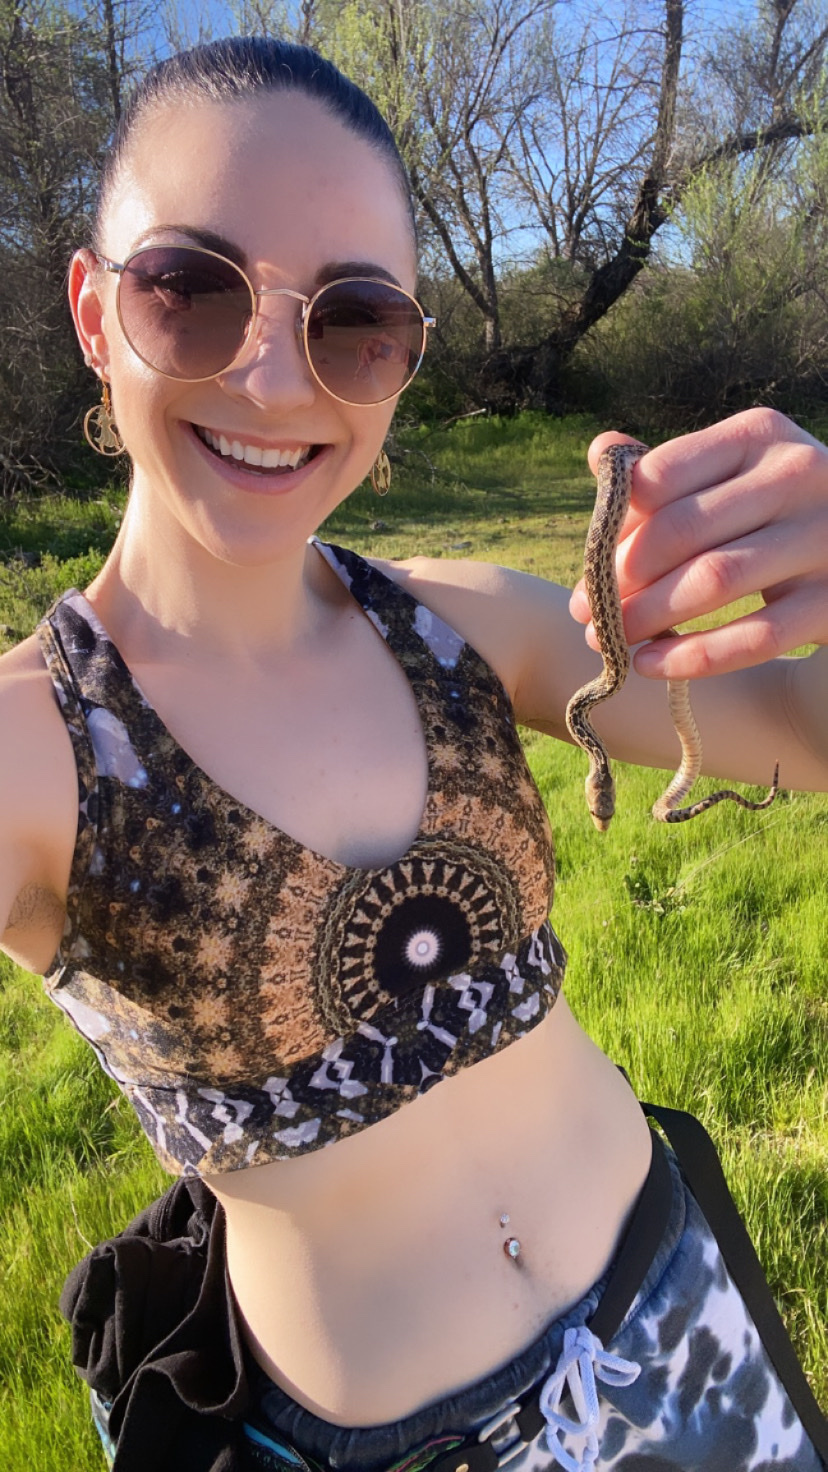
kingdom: Animalia
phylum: Chordata
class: Squamata
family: Colubridae
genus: Pituophis
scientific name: Pituophis catenifer
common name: Gopher snake
